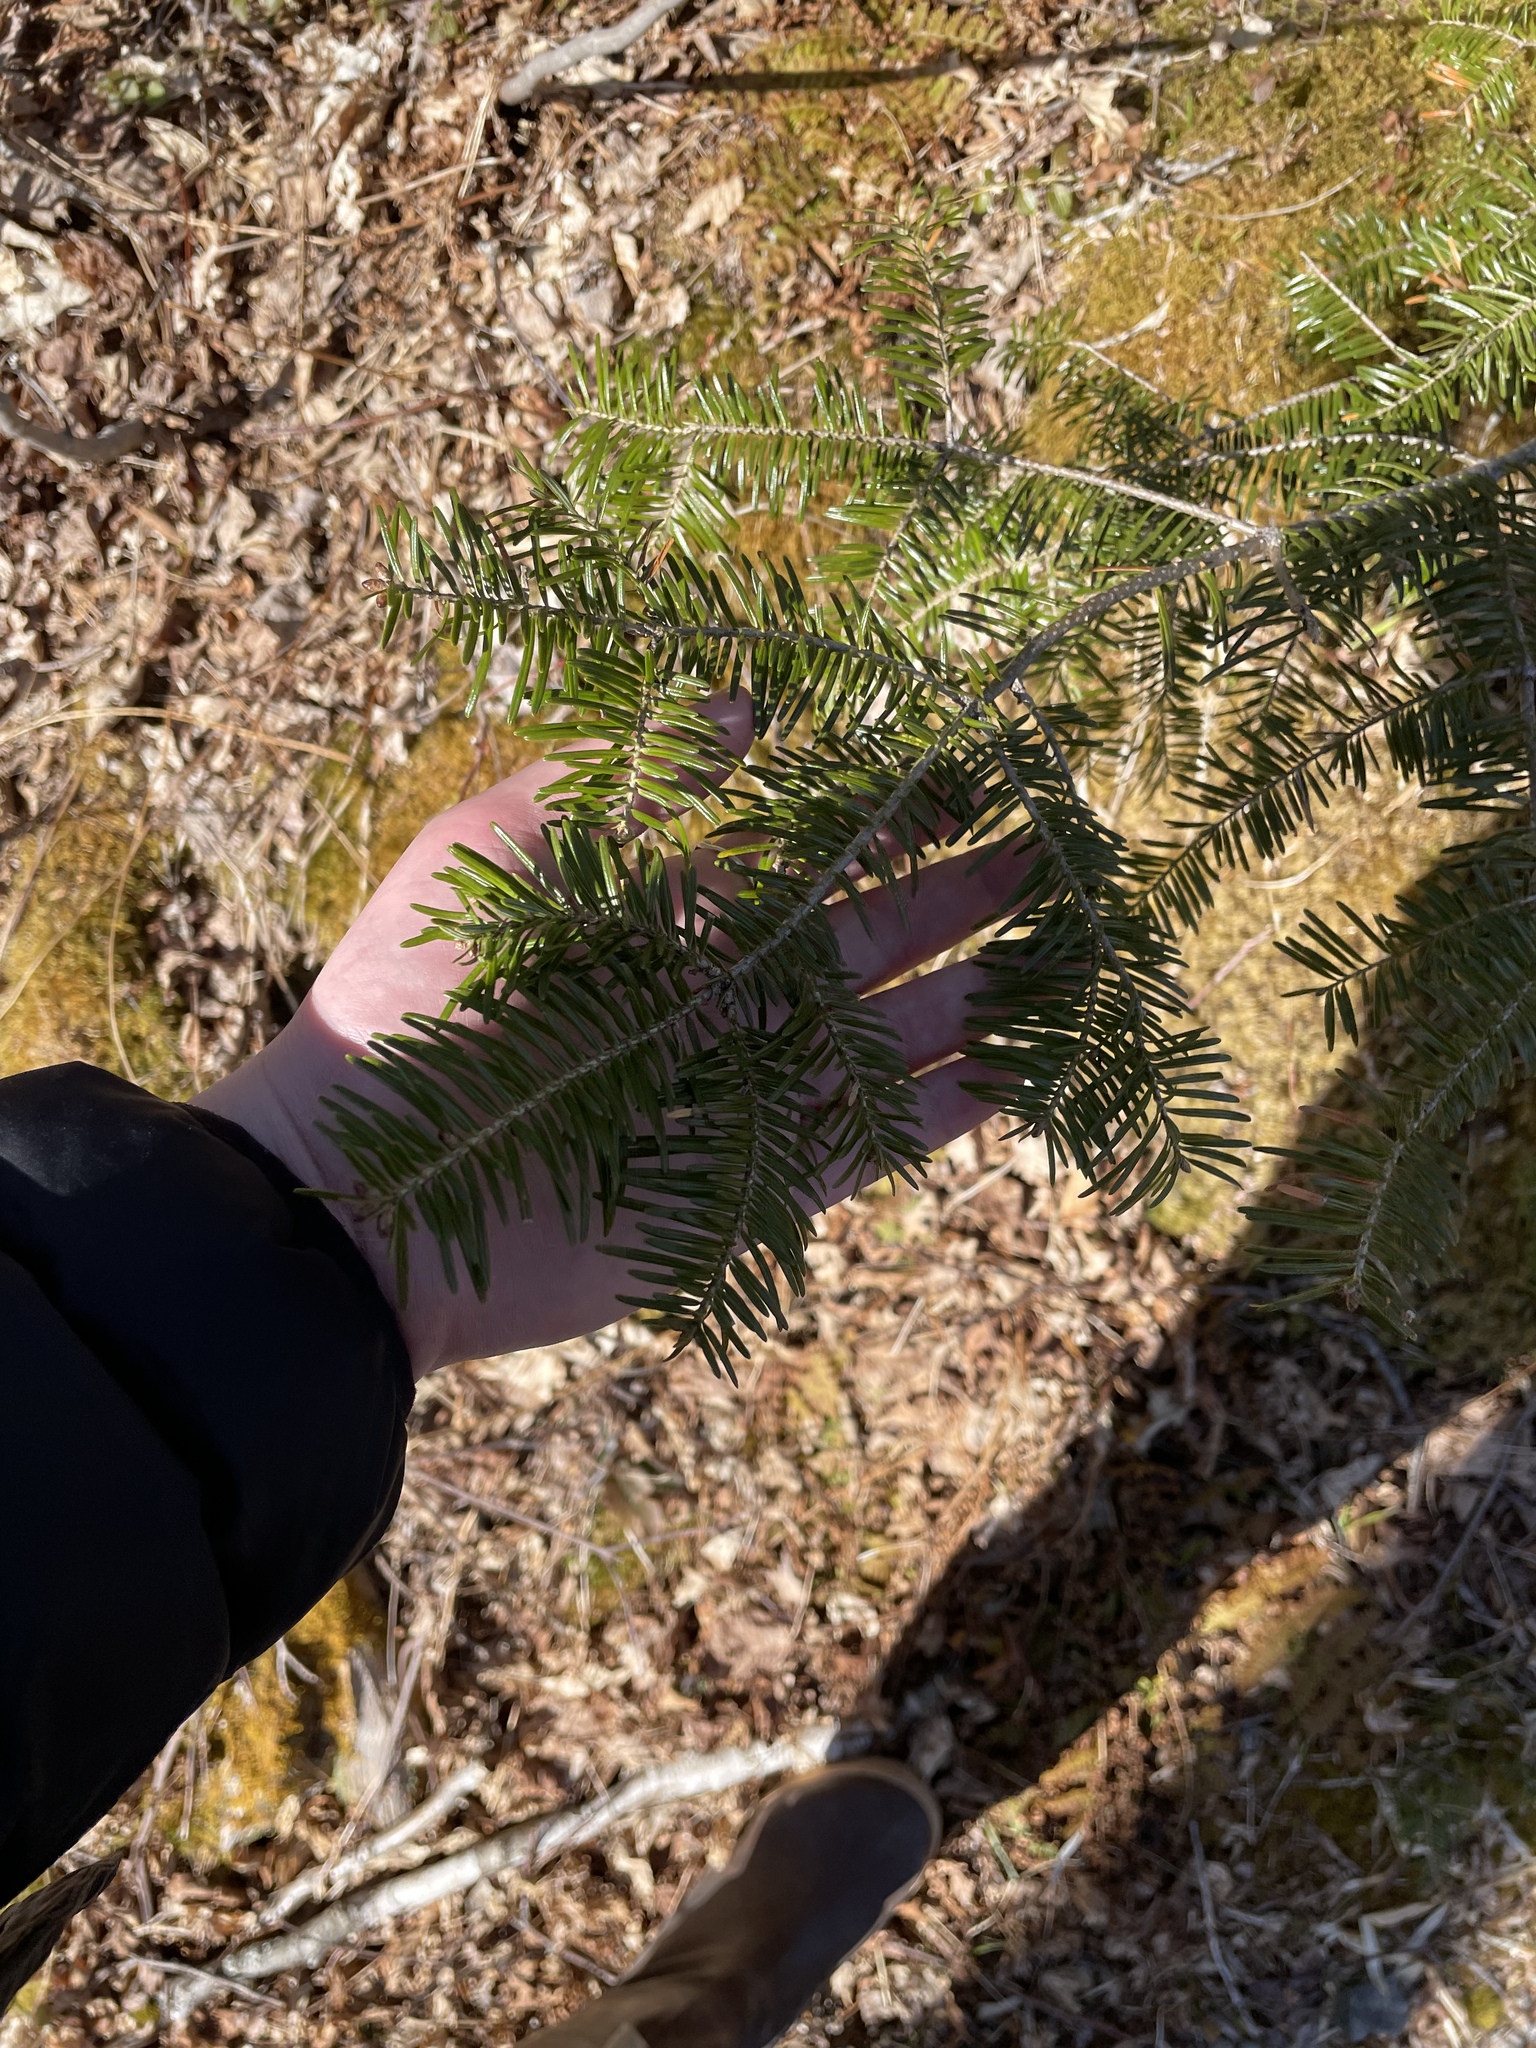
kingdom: Plantae
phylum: Tracheophyta
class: Pinopsida
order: Pinales
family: Pinaceae
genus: Abies
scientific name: Abies balsamea
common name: Balsam fir
